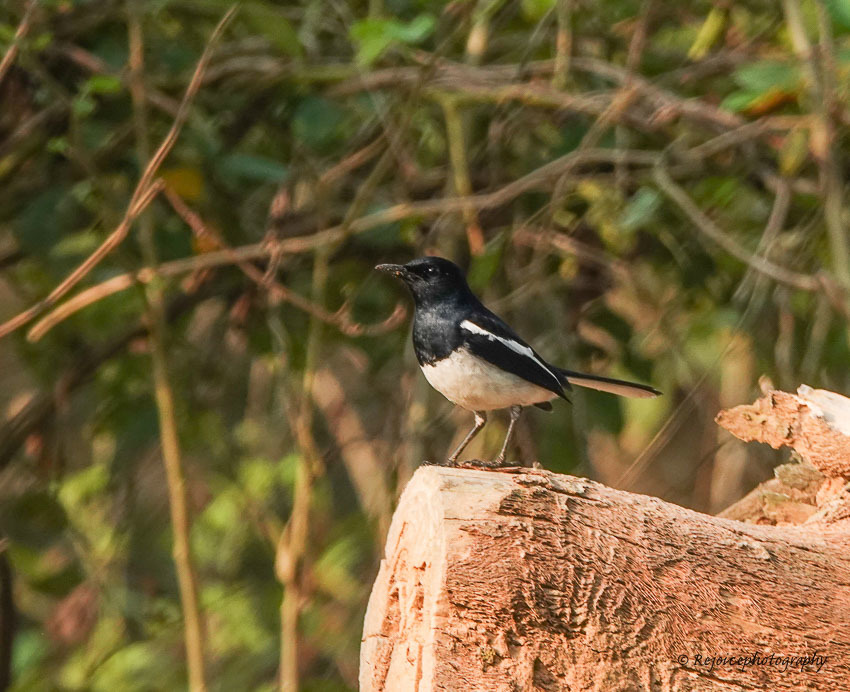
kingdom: Animalia
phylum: Chordata
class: Aves
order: Passeriformes
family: Muscicapidae
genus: Copsychus
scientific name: Copsychus saularis
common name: Oriental magpie-robin
